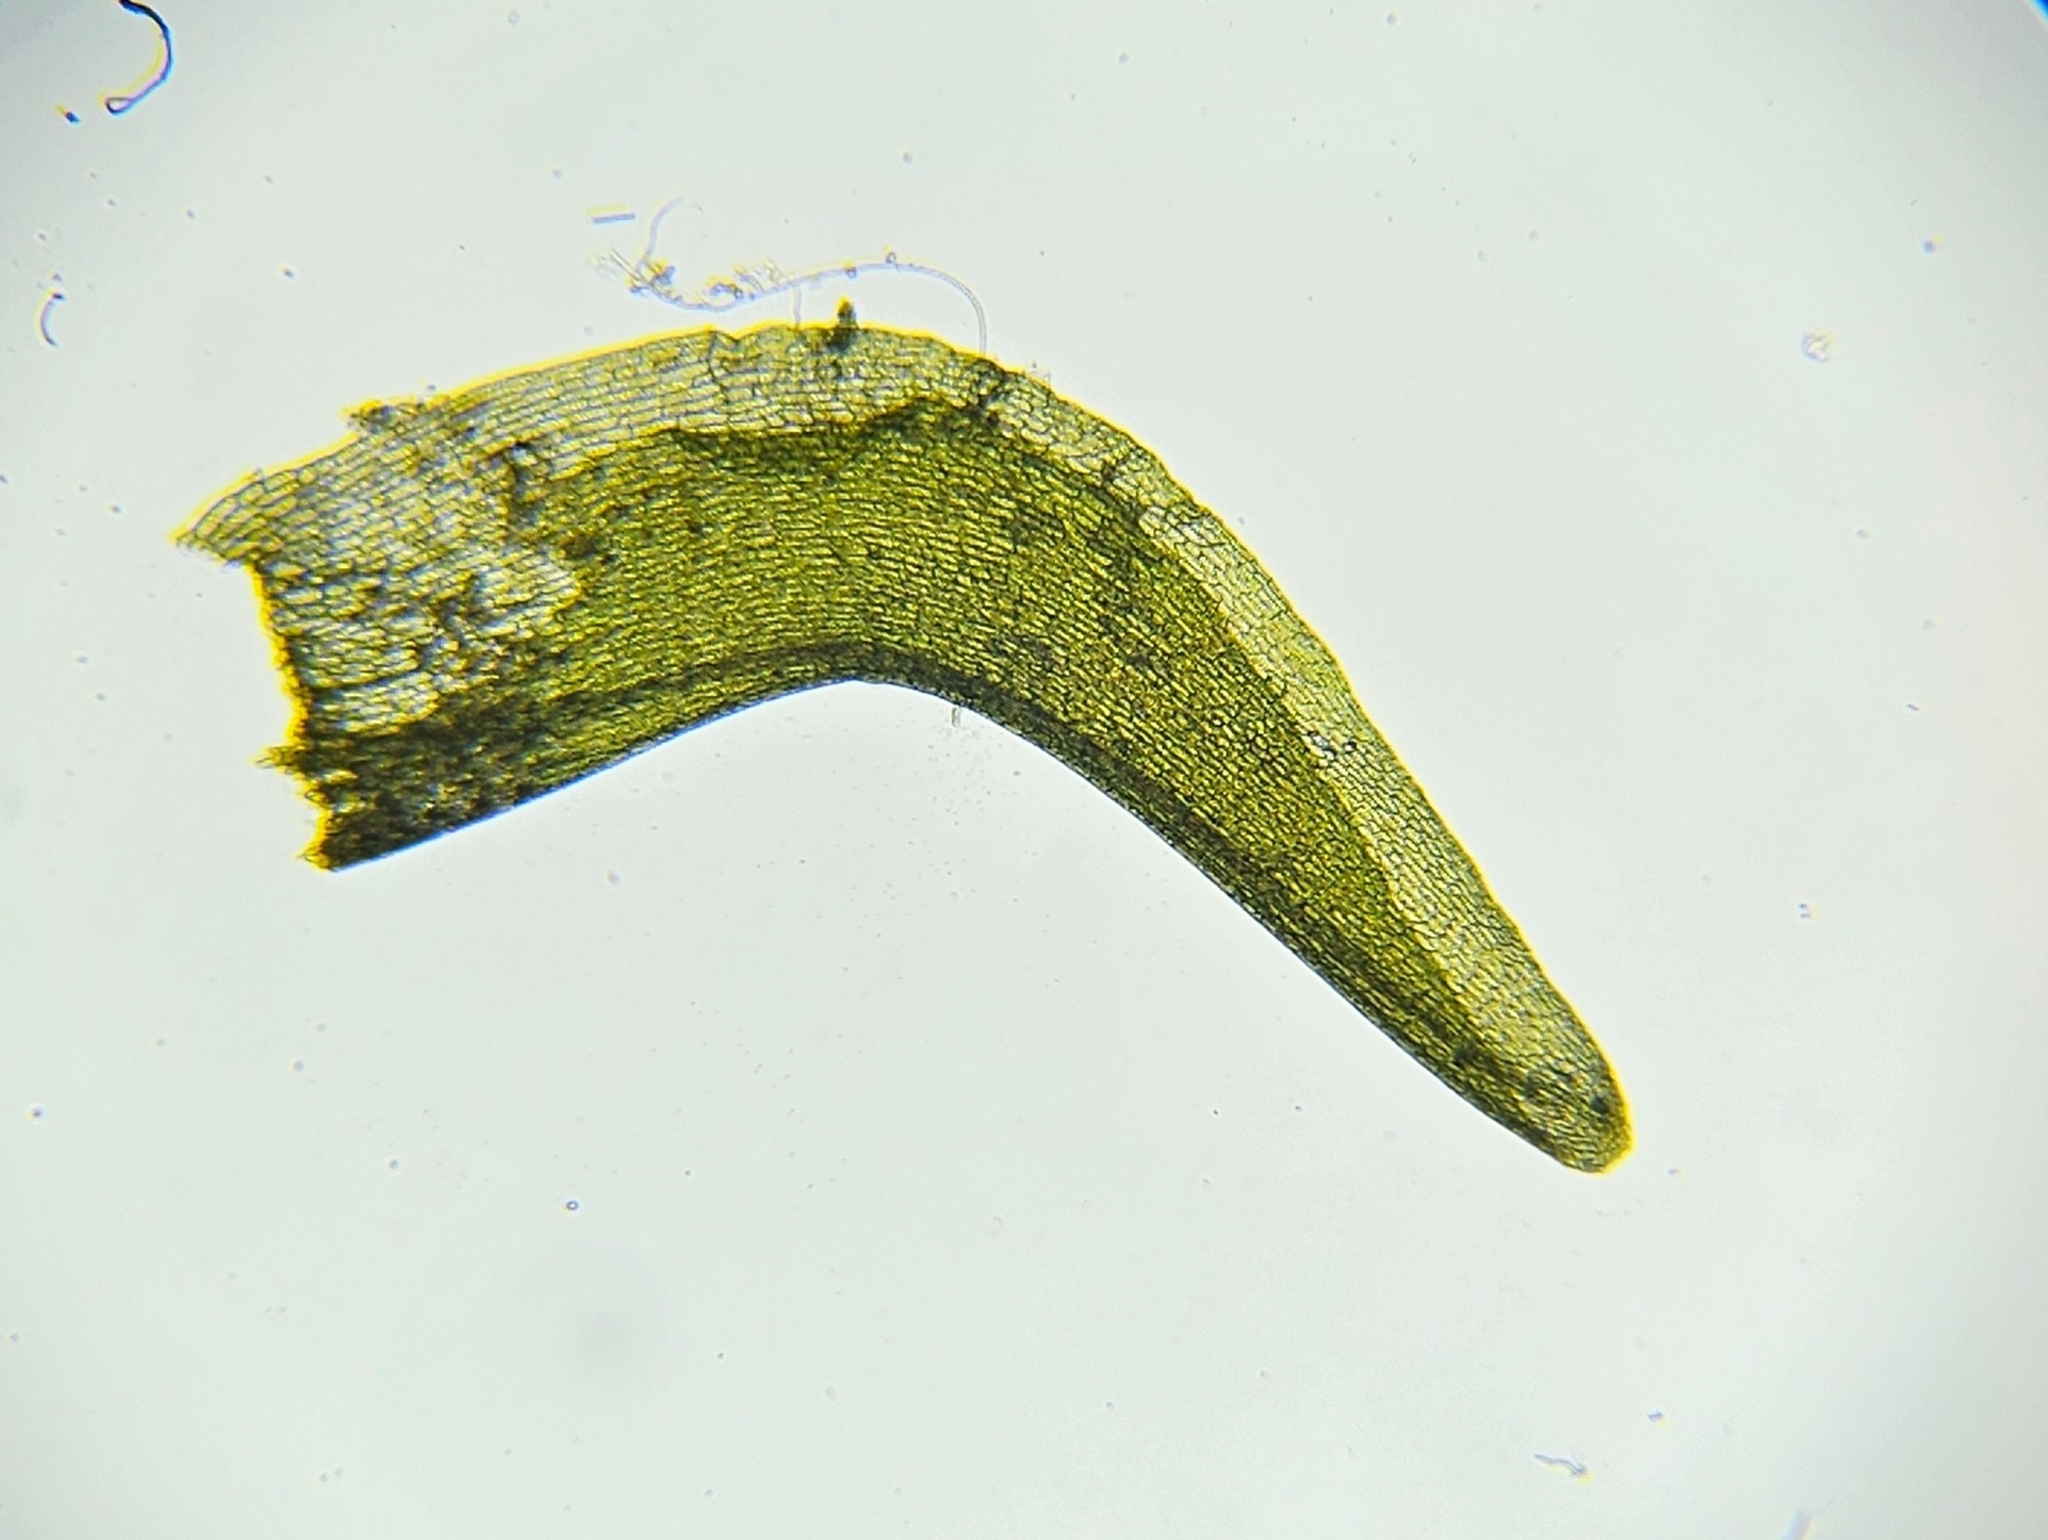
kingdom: Plantae
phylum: Bryophyta
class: Bryopsida
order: Dicranales
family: Aongstroemiaceae
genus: Diobelonella
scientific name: Diobelonella palustris
